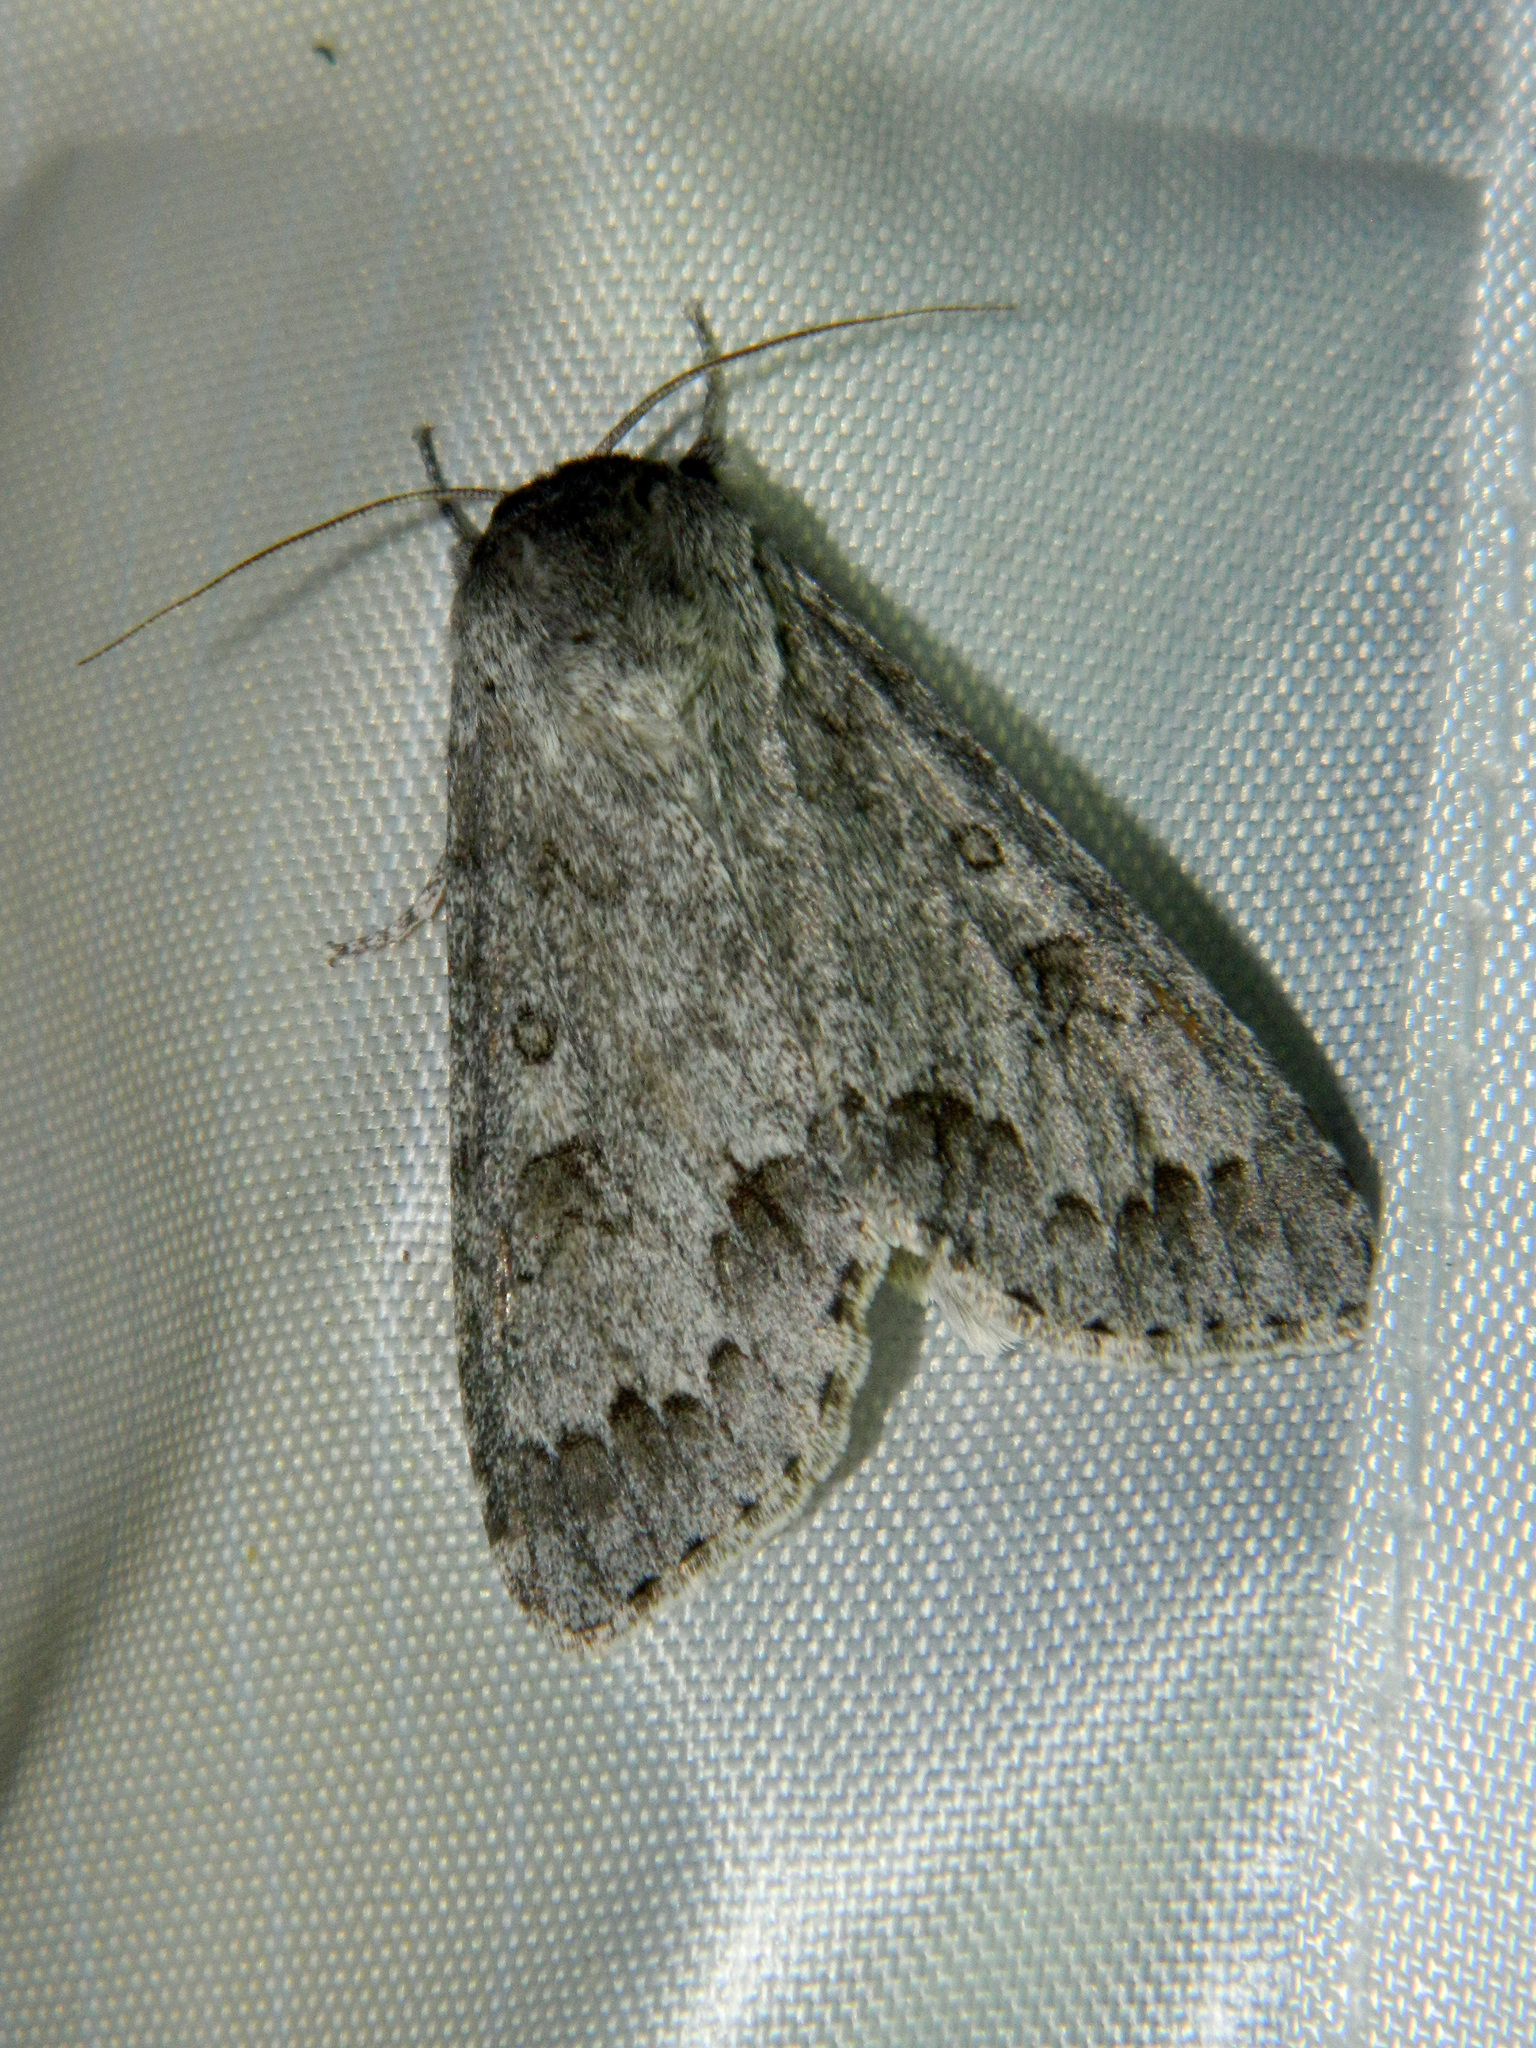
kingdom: Animalia
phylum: Arthropoda
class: Insecta
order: Lepidoptera
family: Noctuidae
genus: Acronicta
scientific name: Acronicta insita
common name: Large gray dagger
